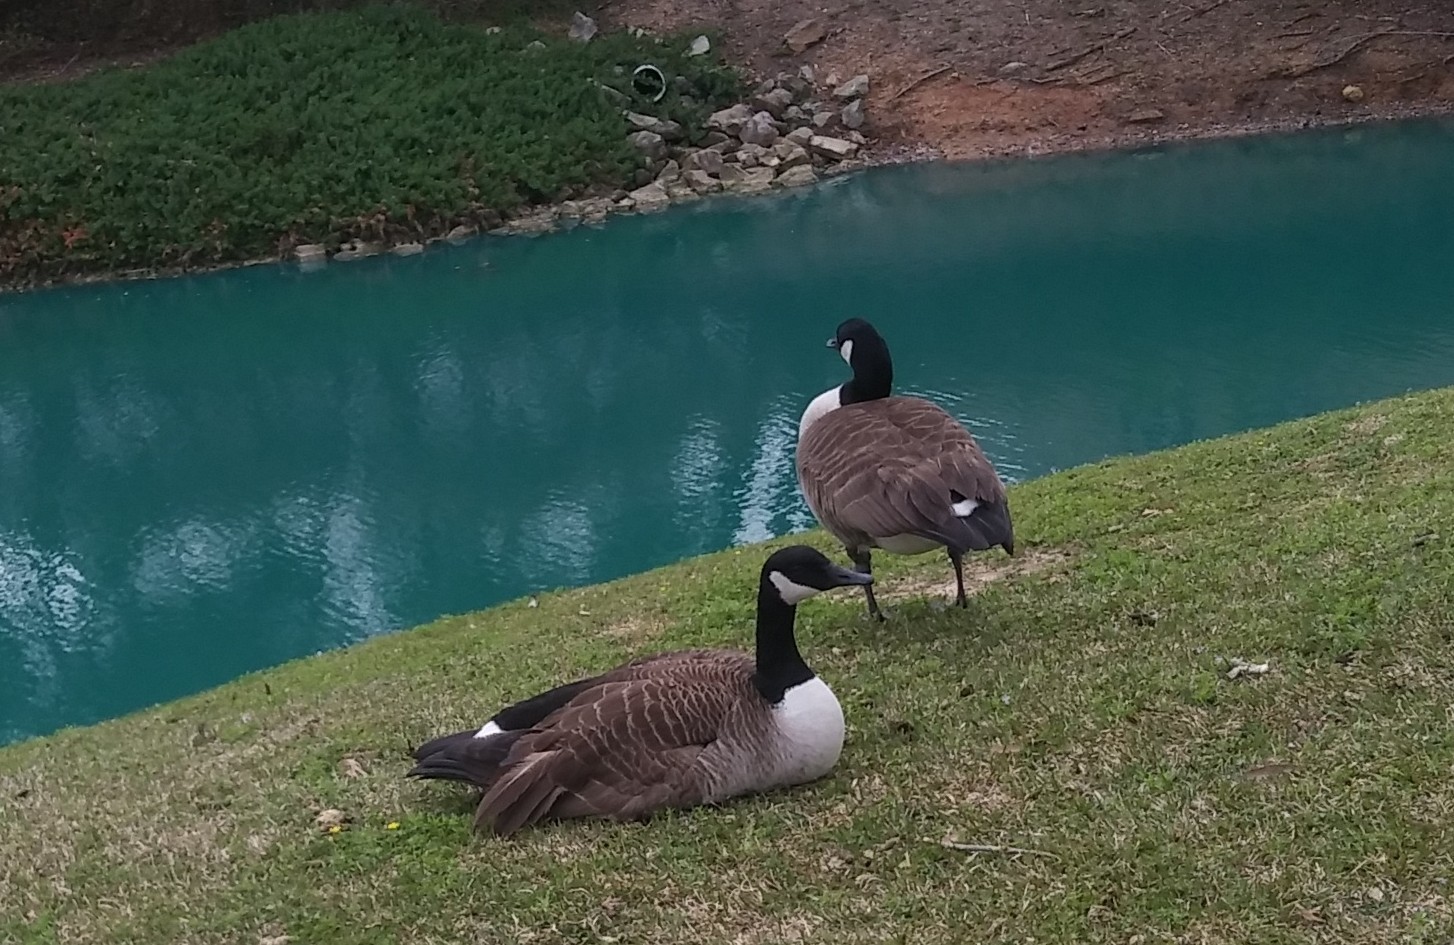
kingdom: Animalia
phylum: Chordata
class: Aves
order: Anseriformes
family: Anatidae
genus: Branta
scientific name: Branta canadensis
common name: Canada goose
